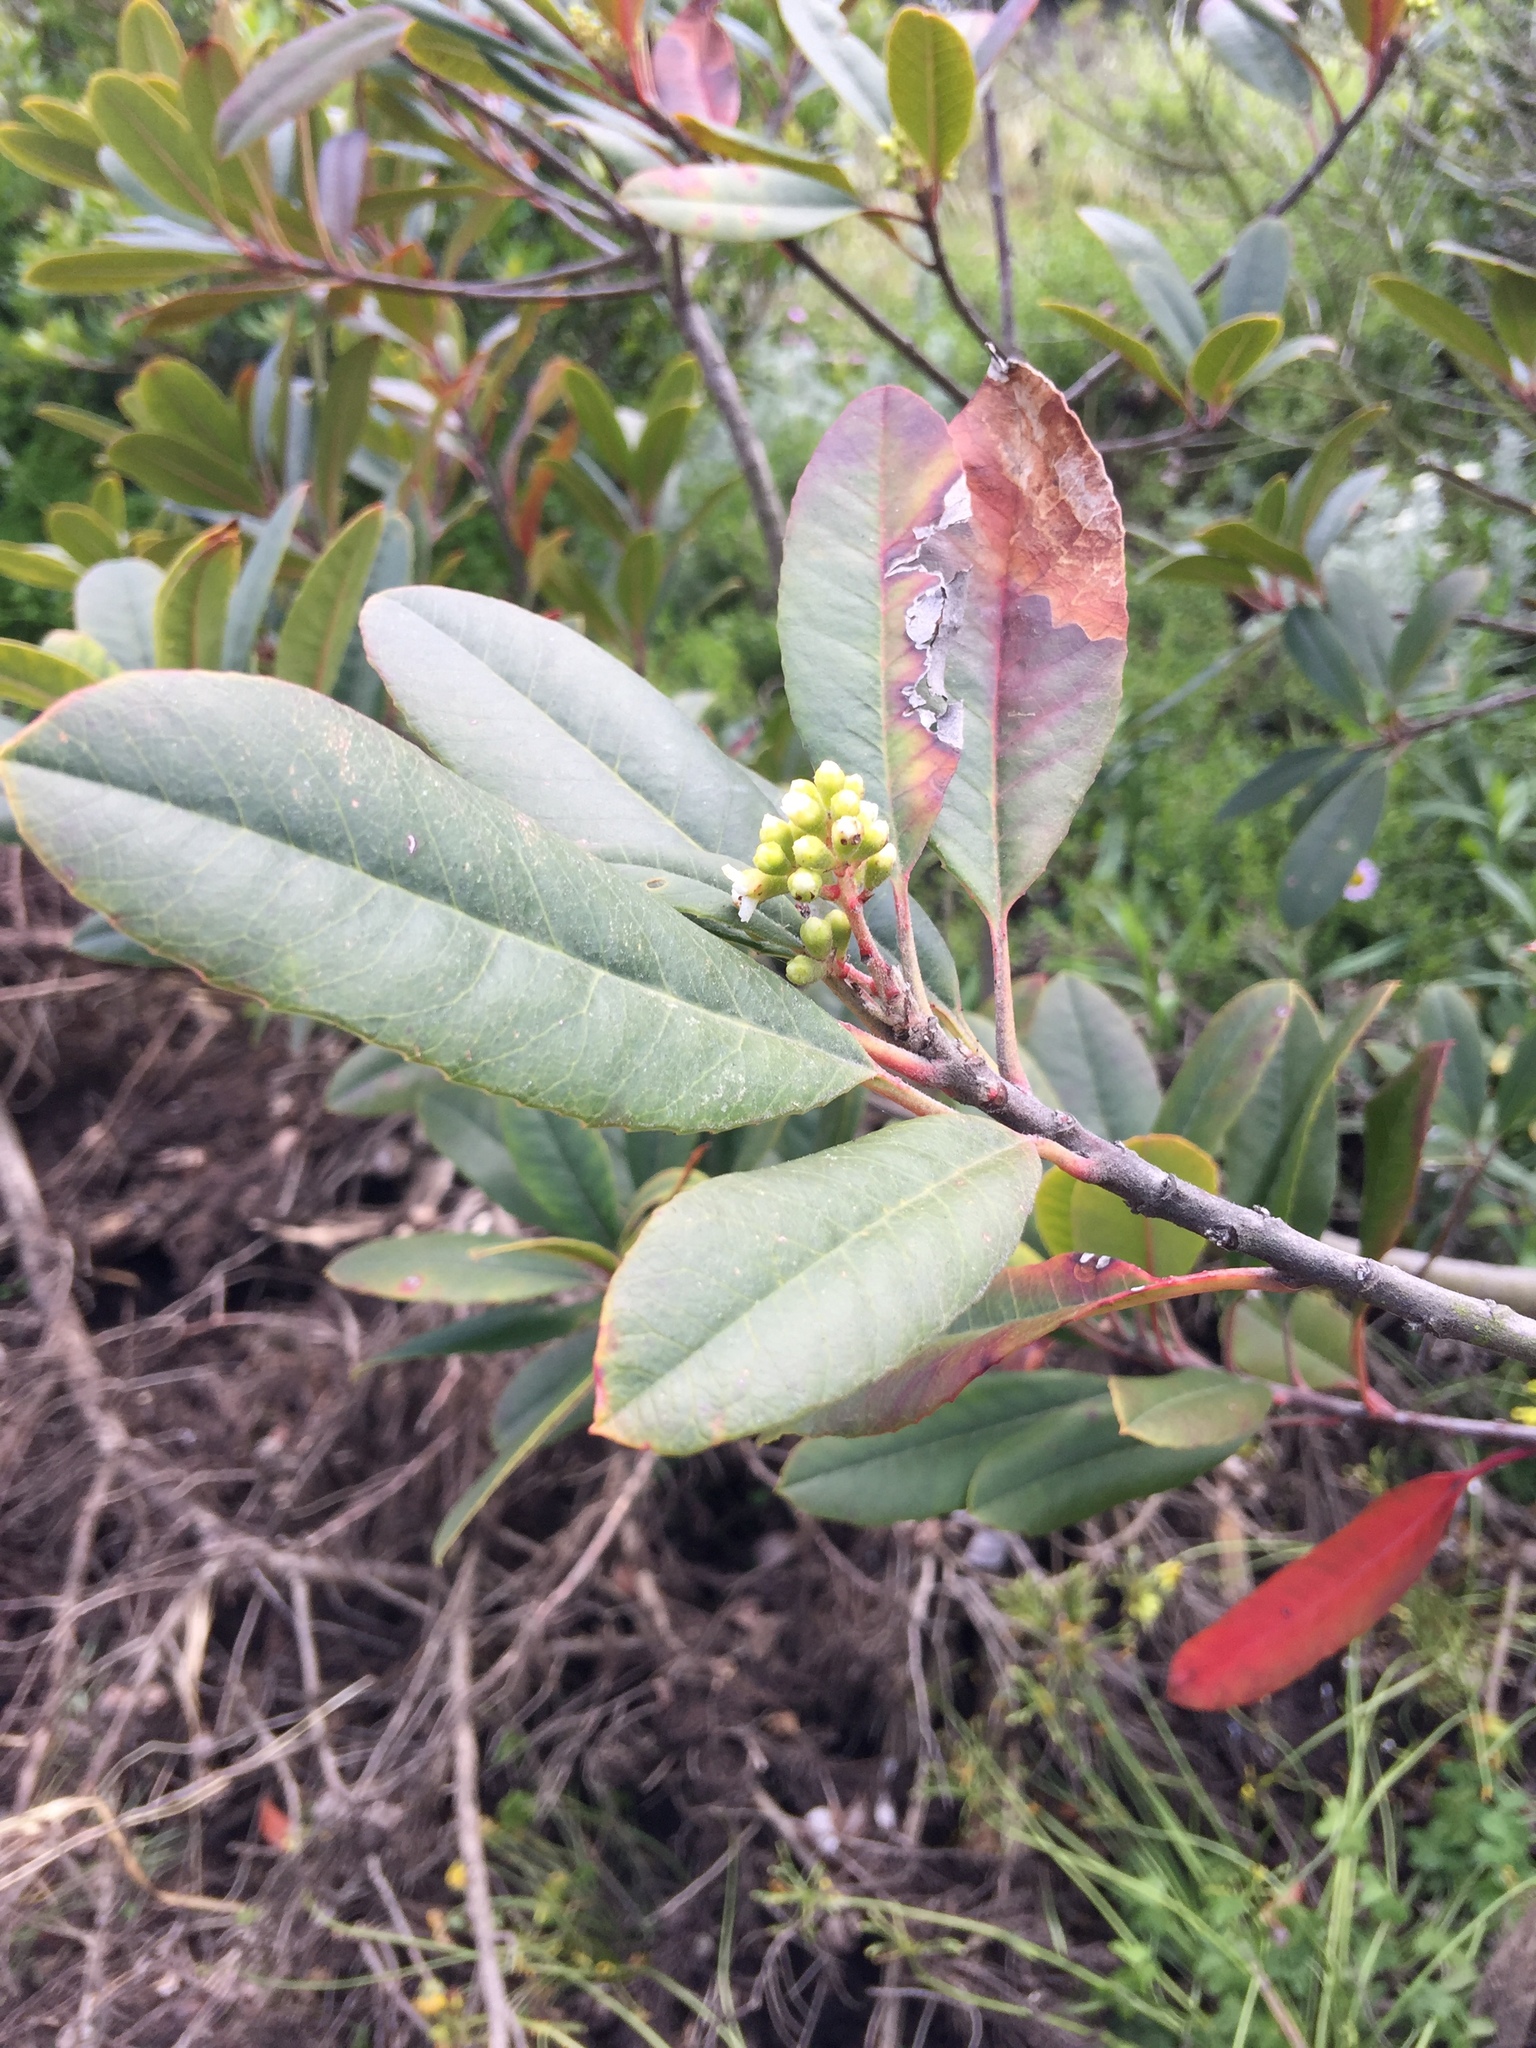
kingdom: Plantae
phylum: Tracheophyta
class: Magnoliopsida
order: Rosales
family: Rosaceae
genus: Heteromeles
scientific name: Heteromeles arbutifolia
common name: California-holly
